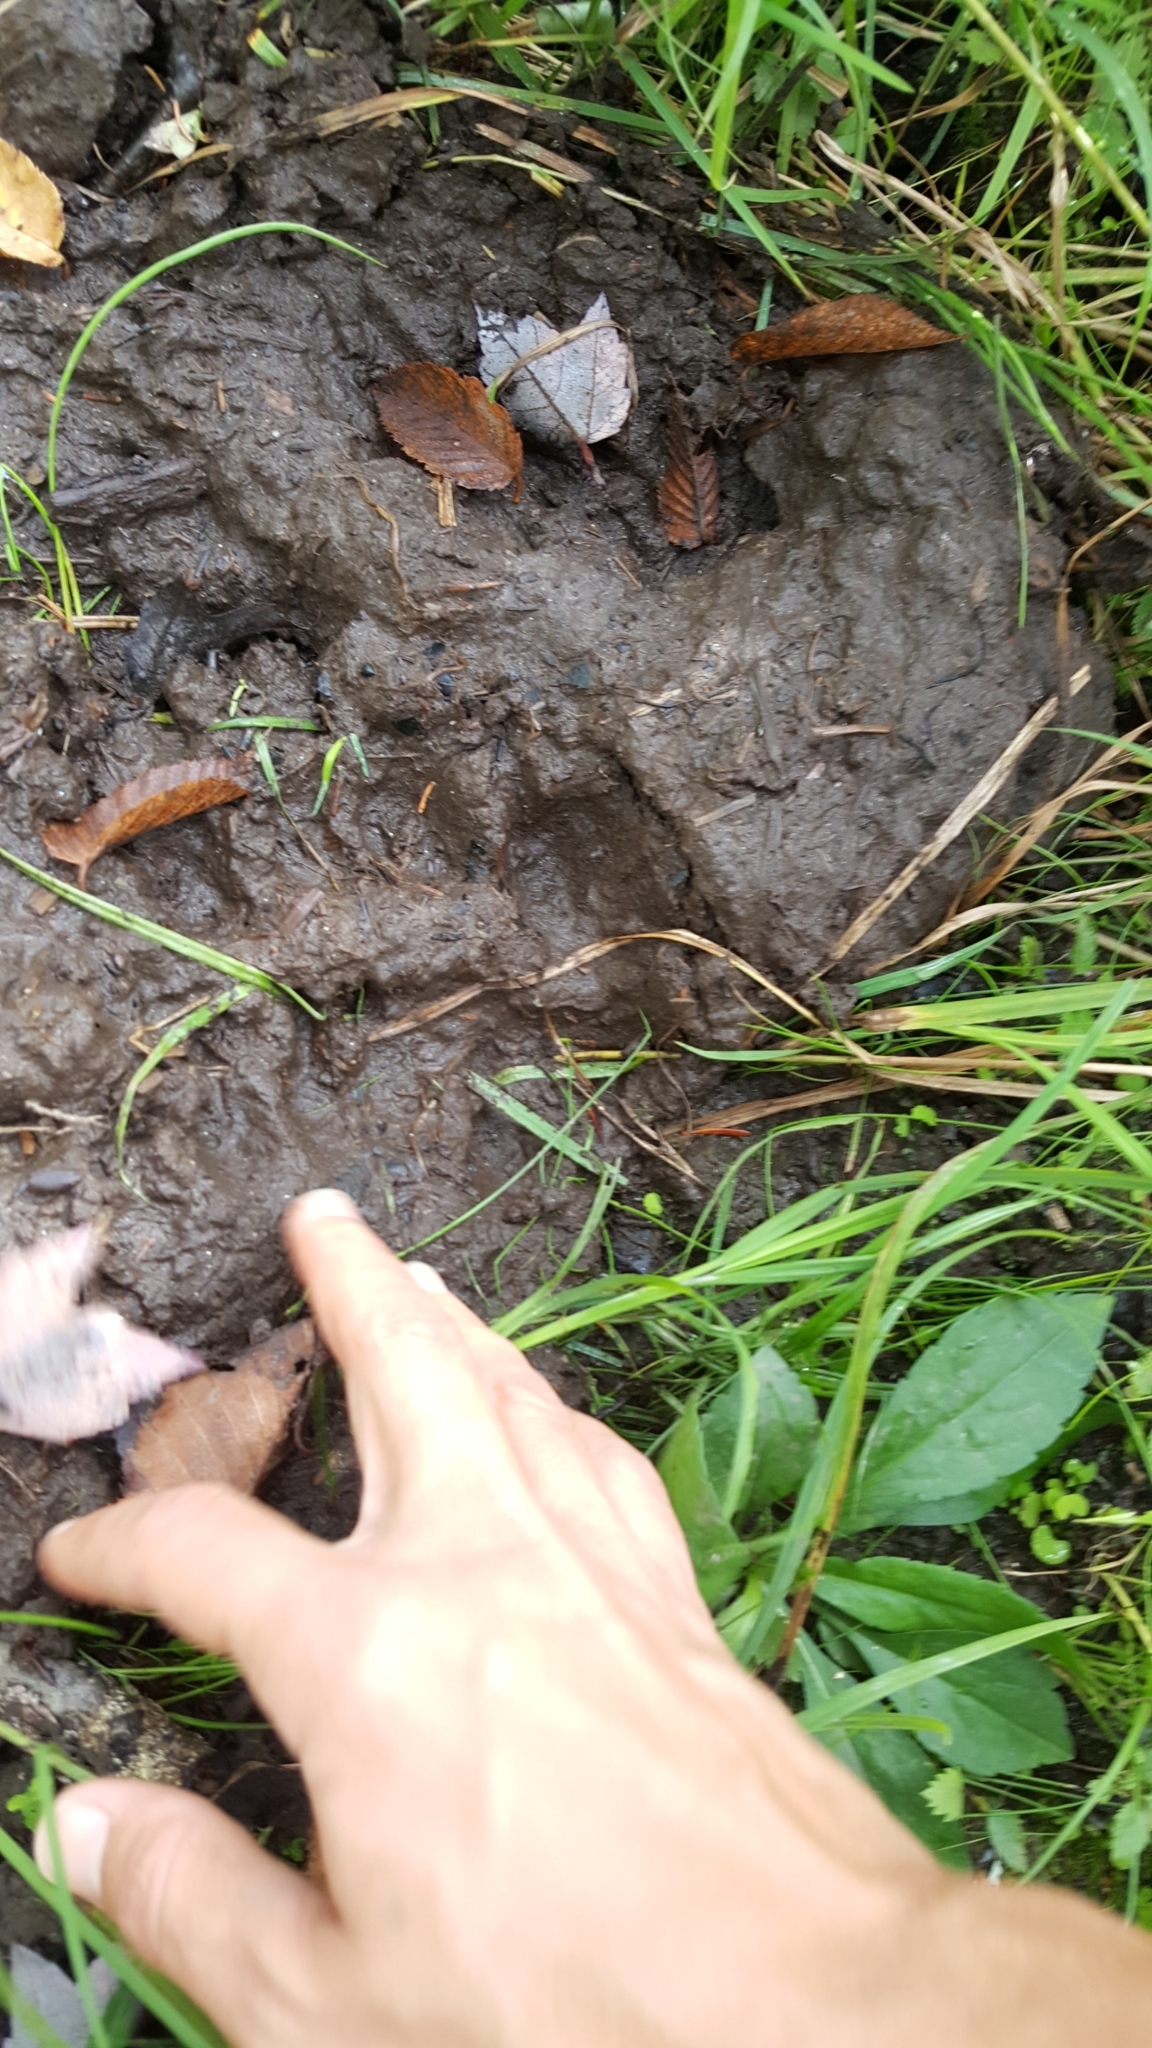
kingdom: Animalia
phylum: Chordata
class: Mammalia
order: Carnivora
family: Ursidae
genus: Ursus
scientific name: Ursus americanus
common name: American black bear
